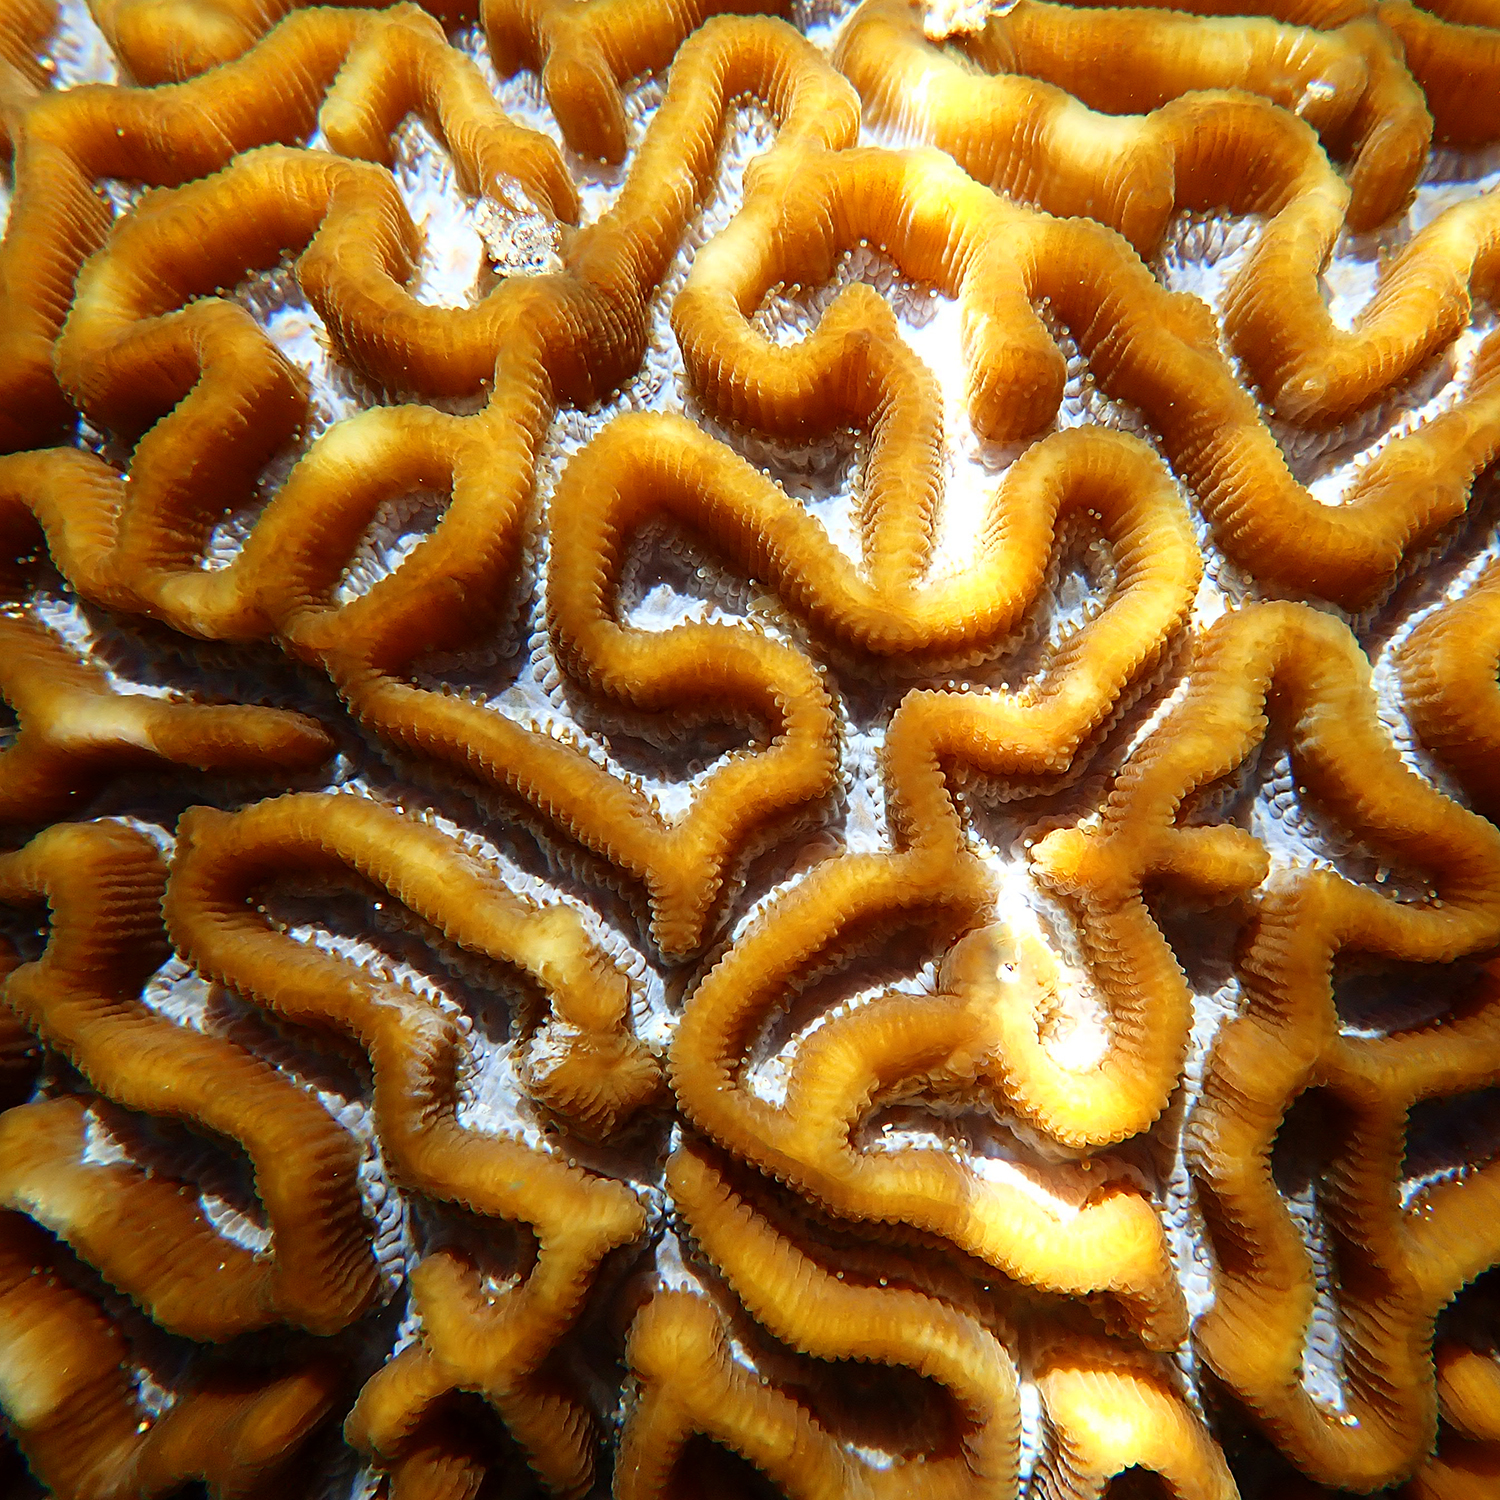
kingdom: Animalia
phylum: Cnidaria
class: Anthozoa
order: Scleractinia
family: Merulinidae
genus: Paragoniastrea
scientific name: Paragoniastrea australensis
